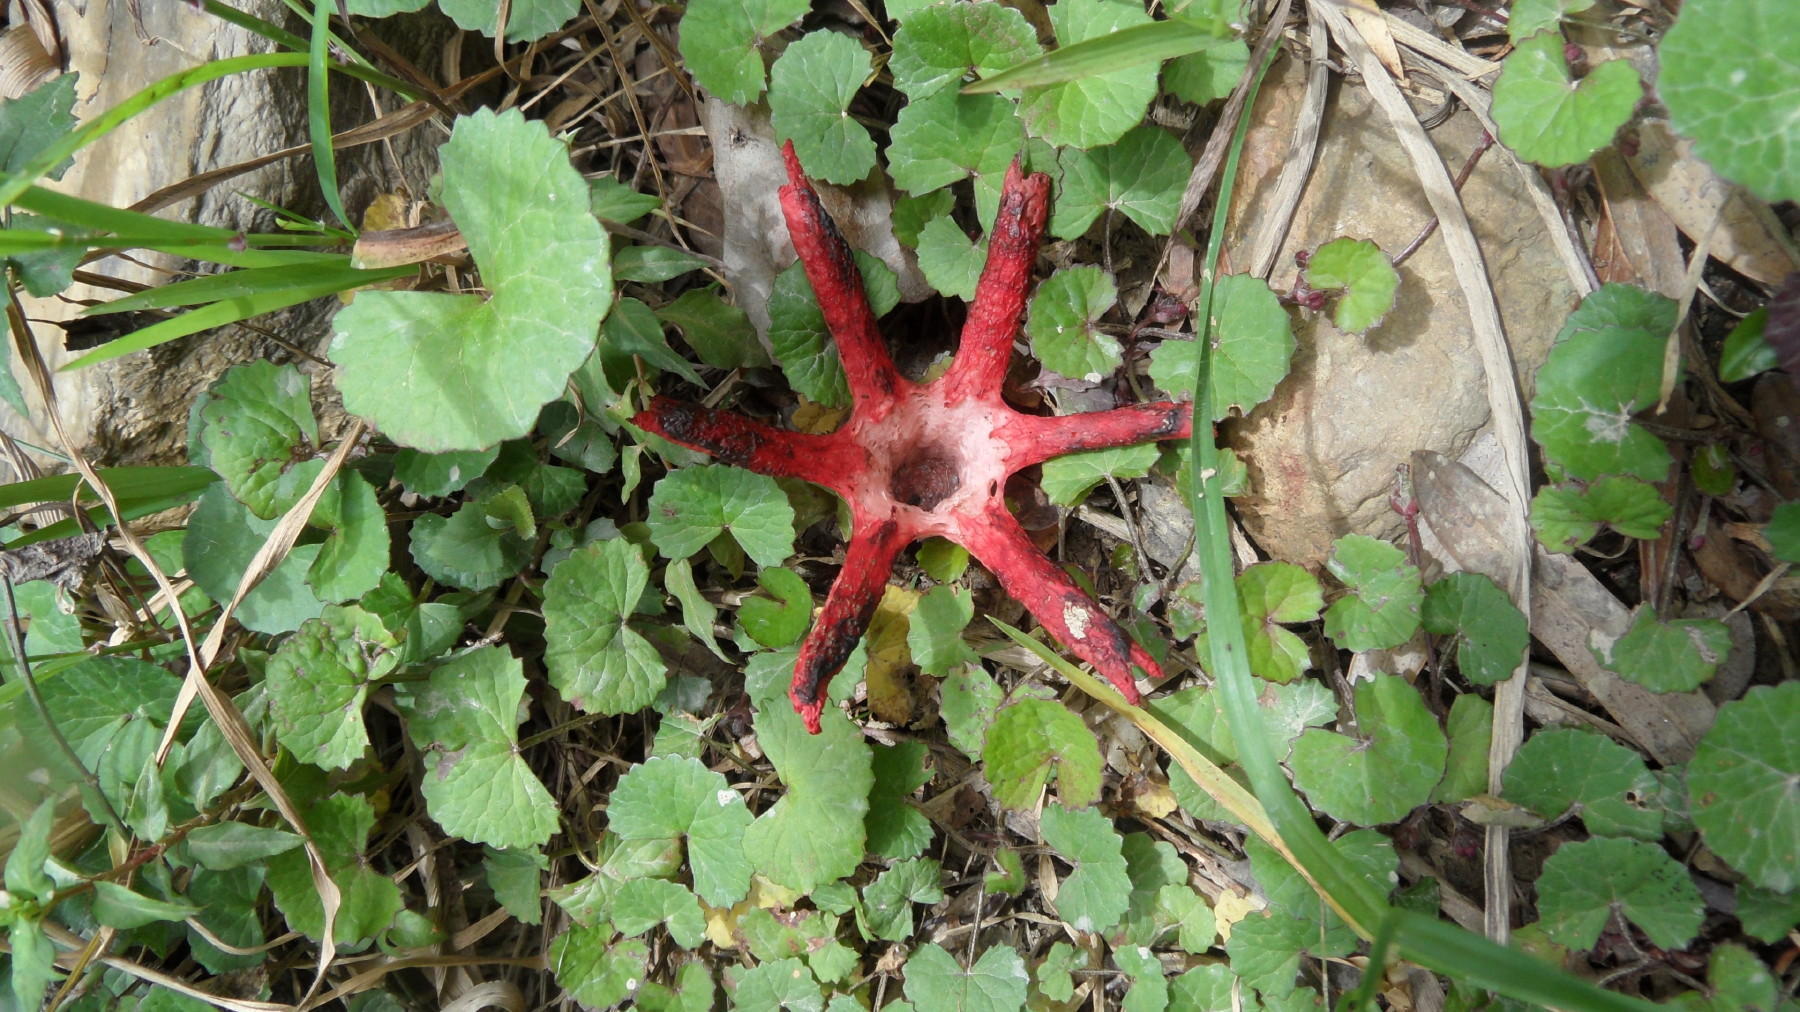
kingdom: Fungi
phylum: Basidiomycota
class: Agaricomycetes
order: Phallales
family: Phallaceae
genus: Clathrus
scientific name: Clathrus archeri
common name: Devil's fingers
